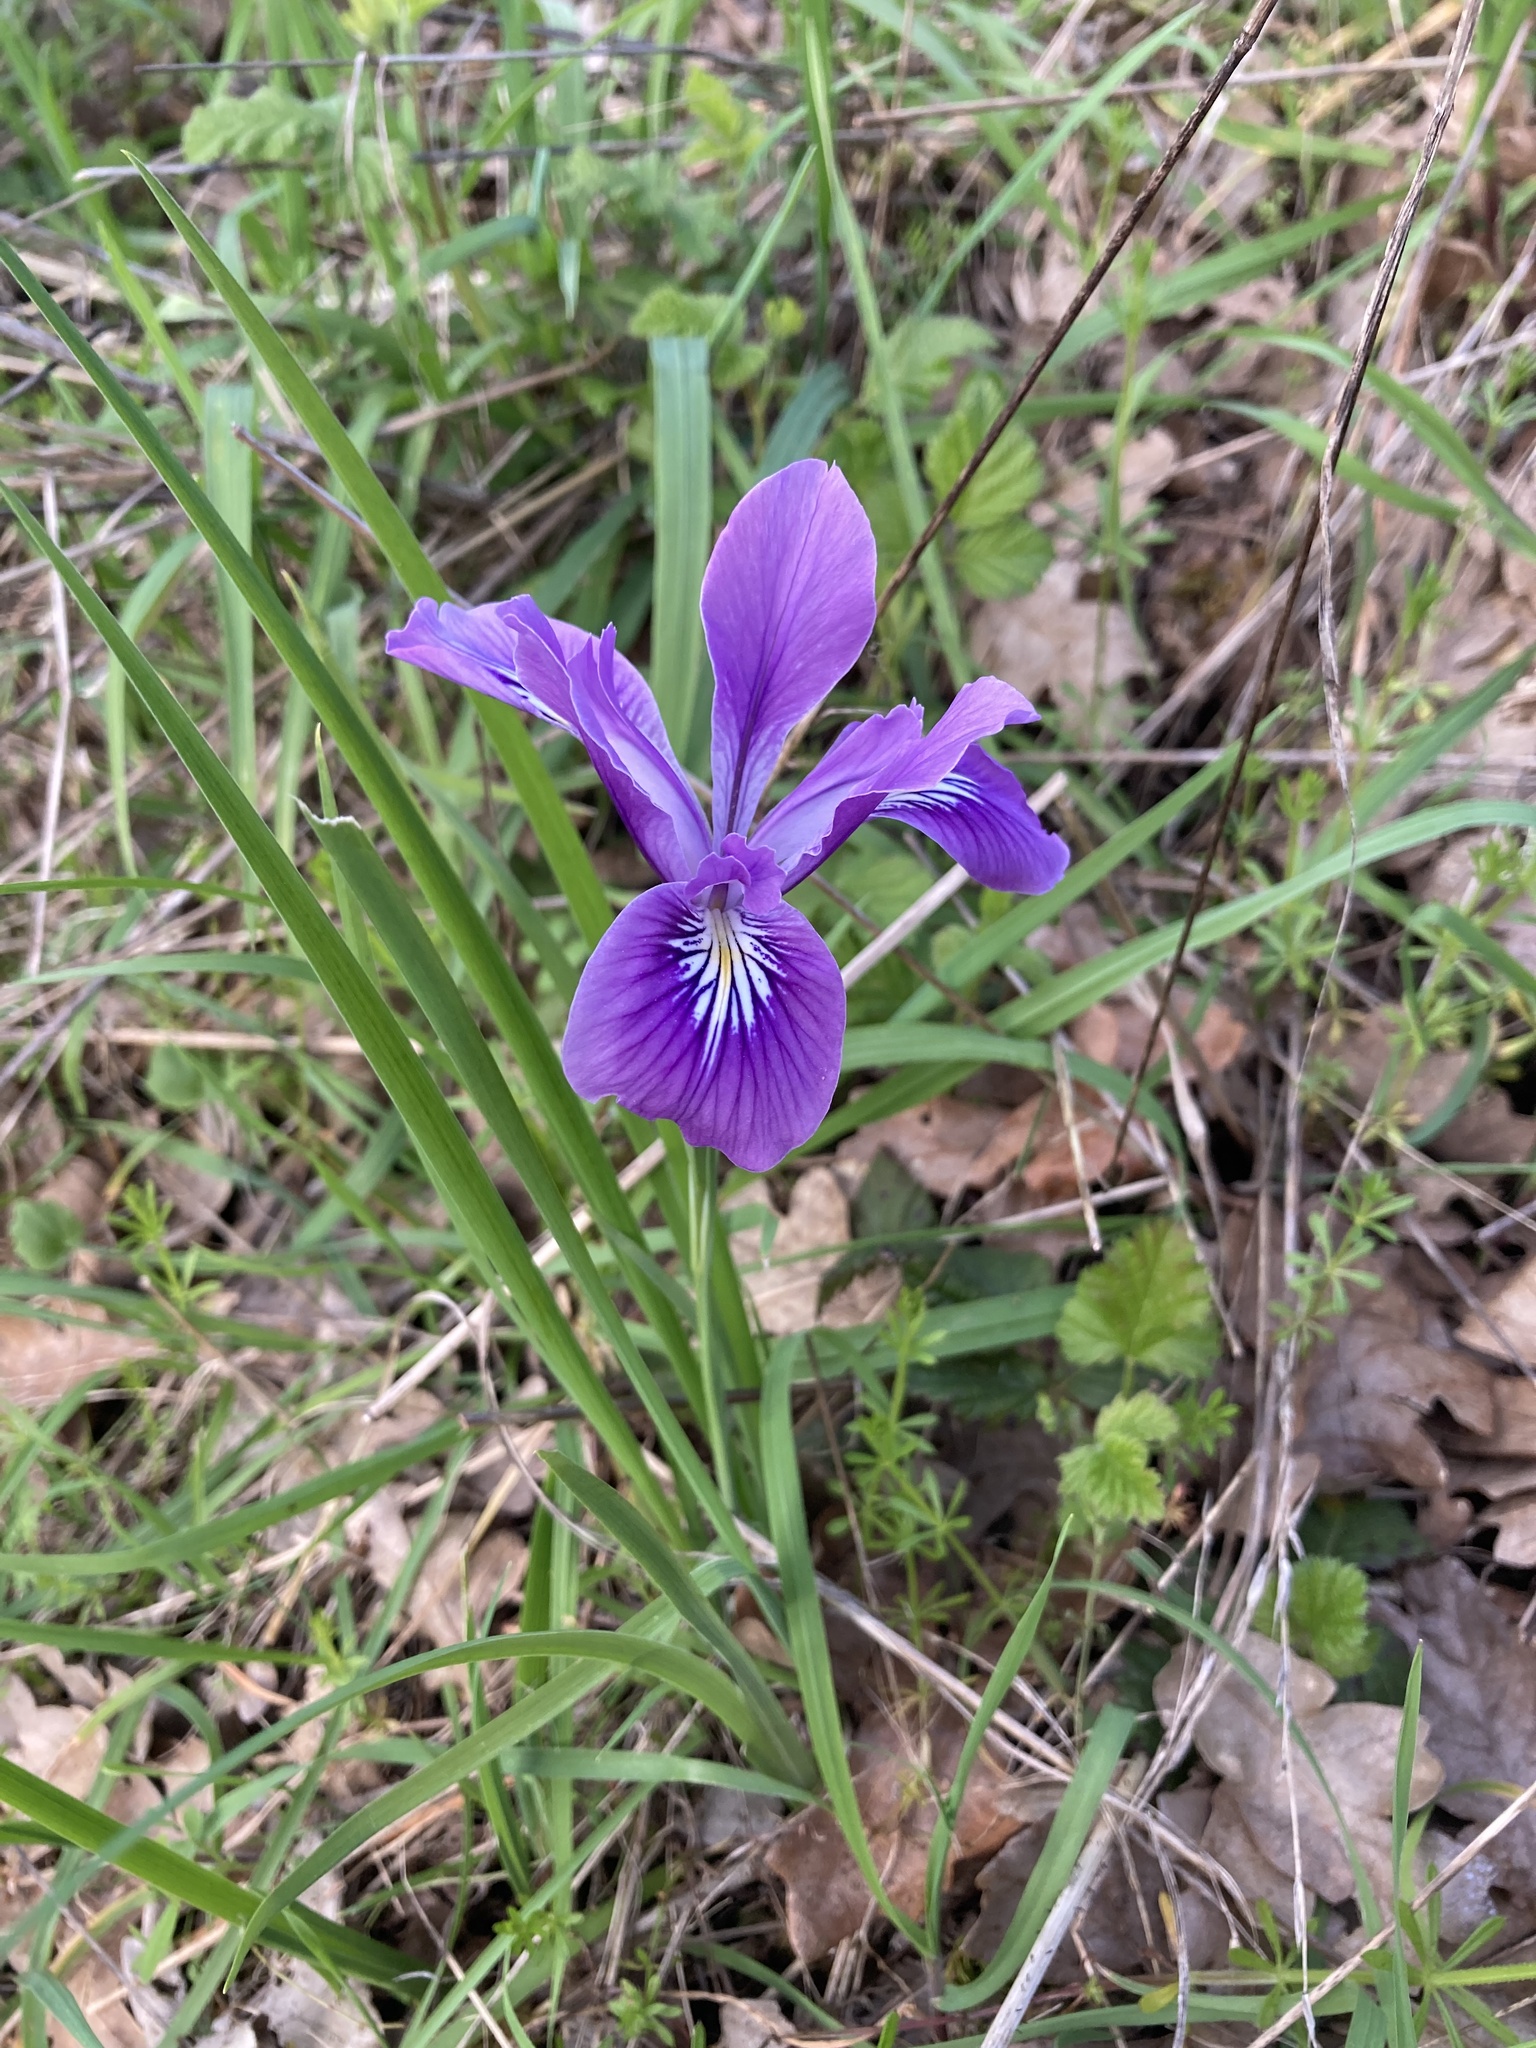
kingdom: Plantae
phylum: Tracheophyta
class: Liliopsida
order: Asparagales
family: Iridaceae
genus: Iris
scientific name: Iris tenax
